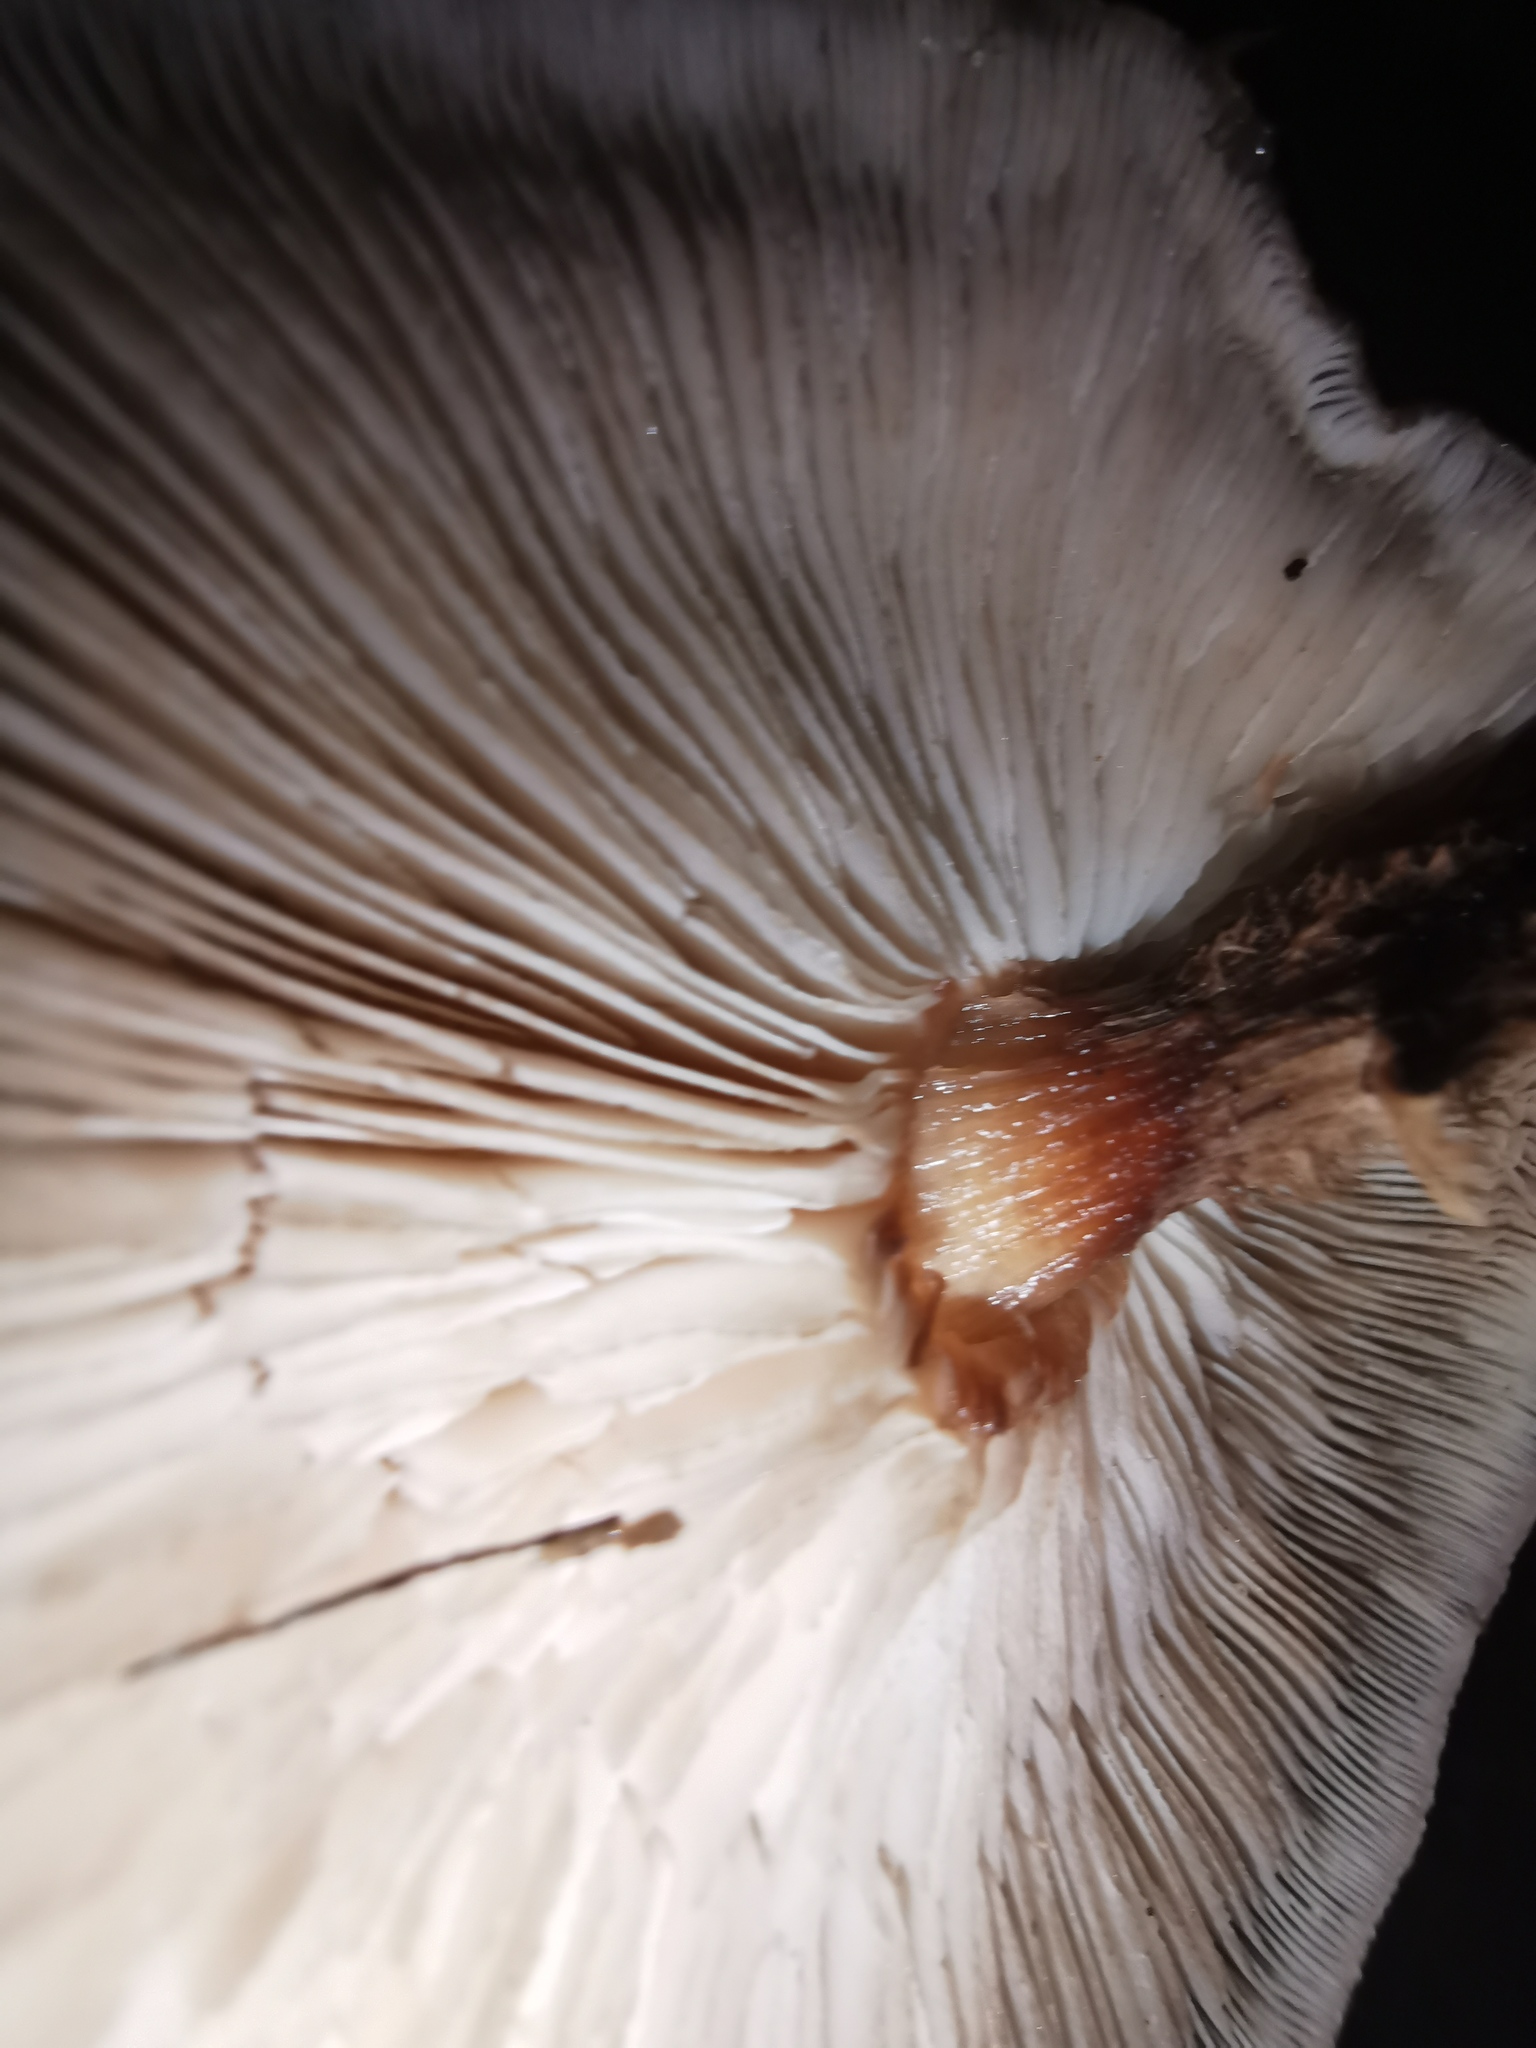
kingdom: Fungi
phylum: Basidiomycota
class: Agaricomycetes
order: Agaricales
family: Omphalotaceae
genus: Lentinula
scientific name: Lentinula novae-zelandiae
